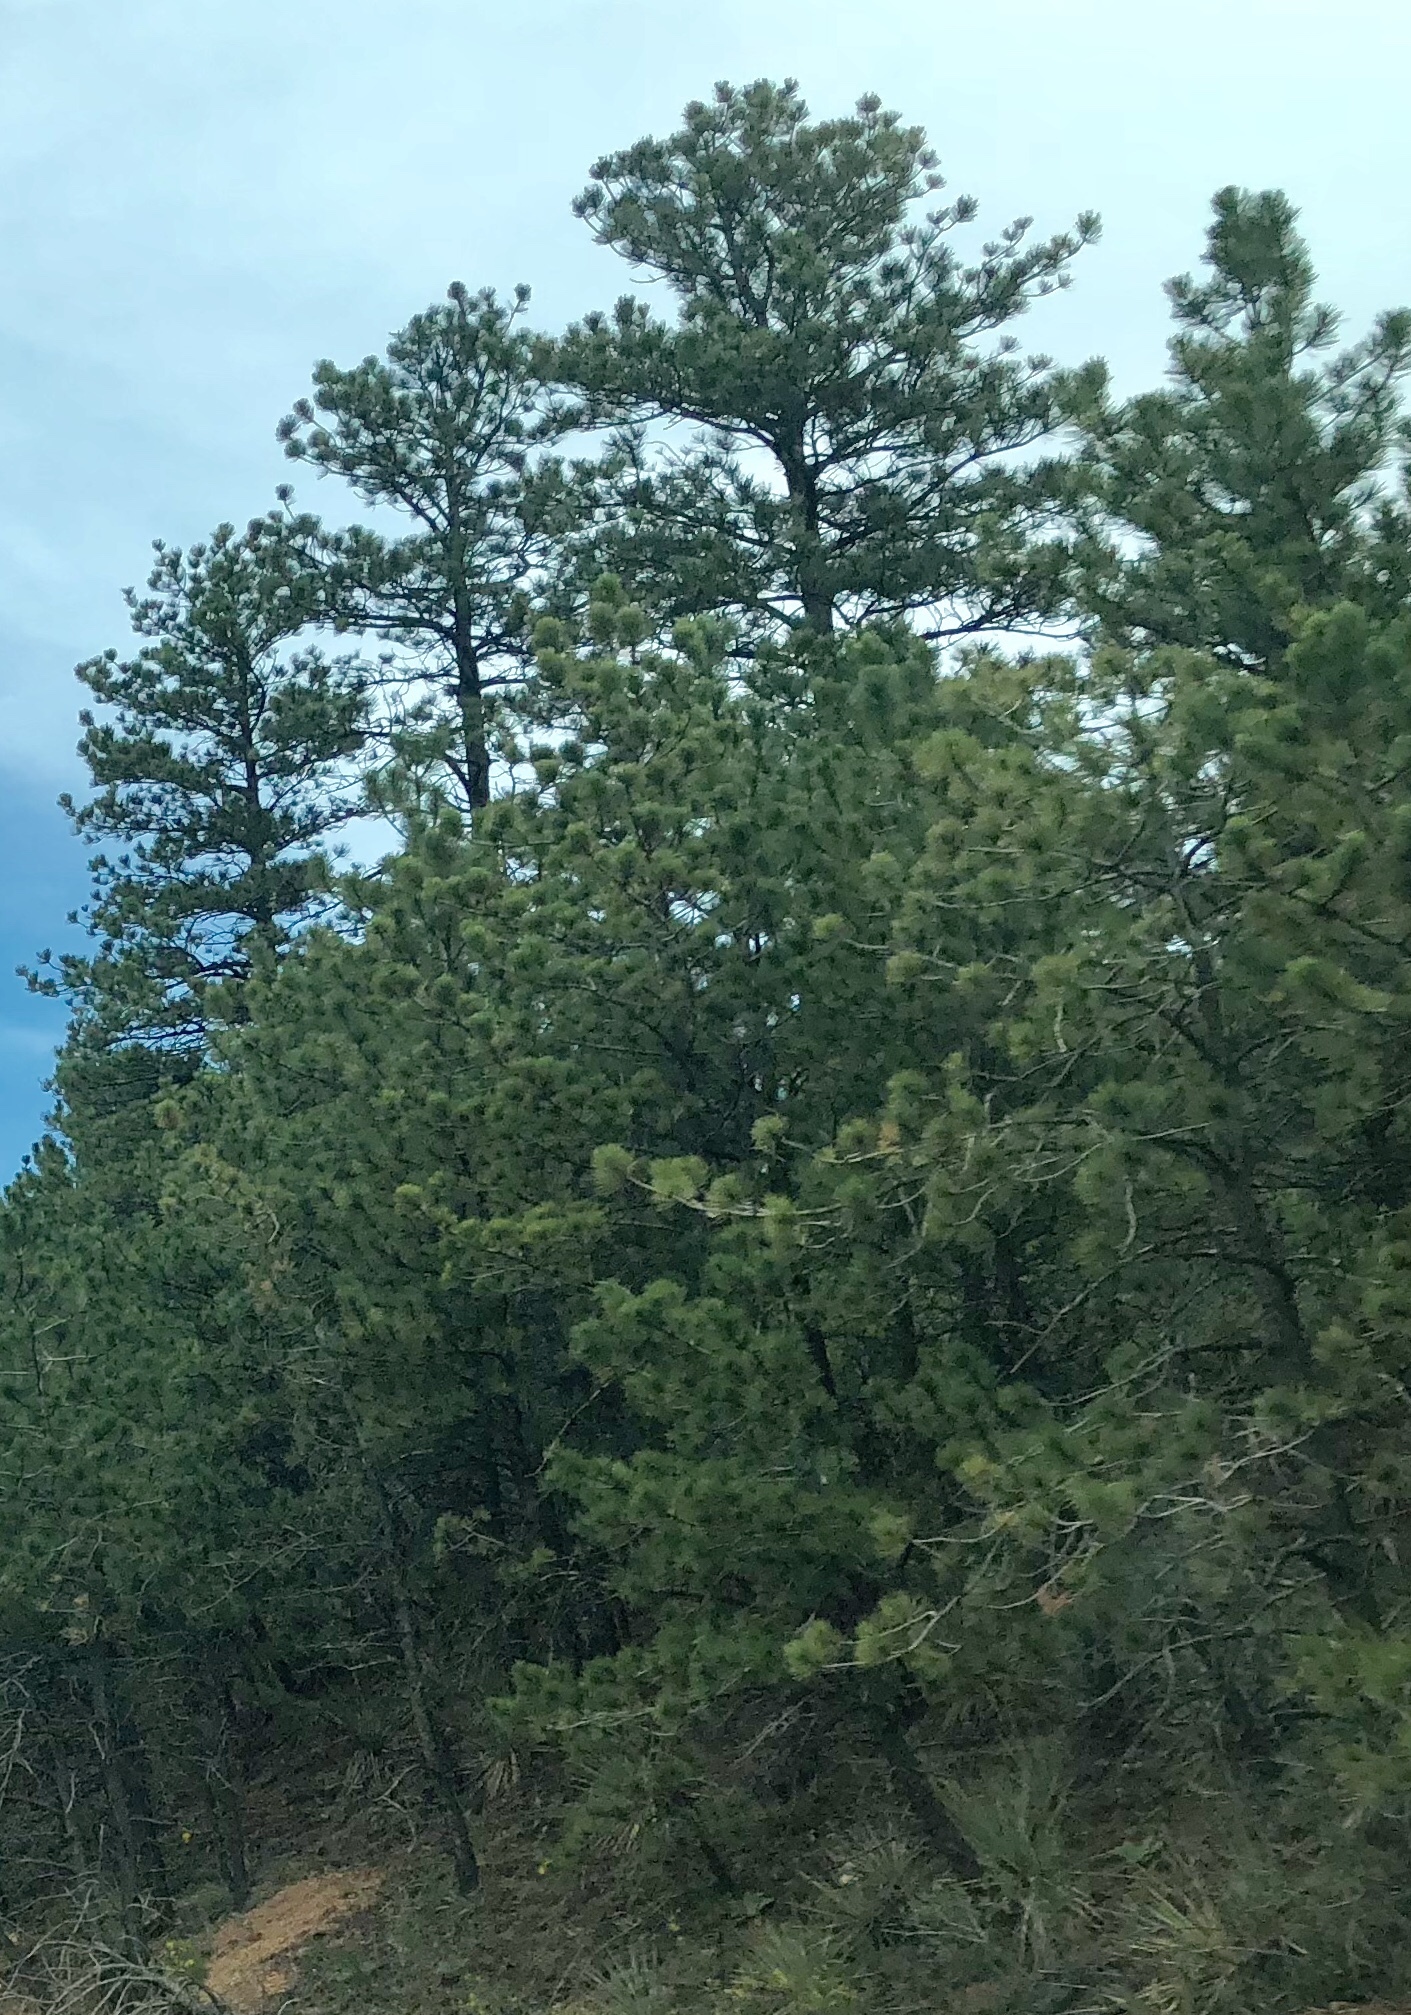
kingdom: Plantae
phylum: Tracheophyta
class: Pinopsida
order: Pinales
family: Pinaceae
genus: Pinus
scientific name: Pinus ponderosa
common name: Western yellow-pine
